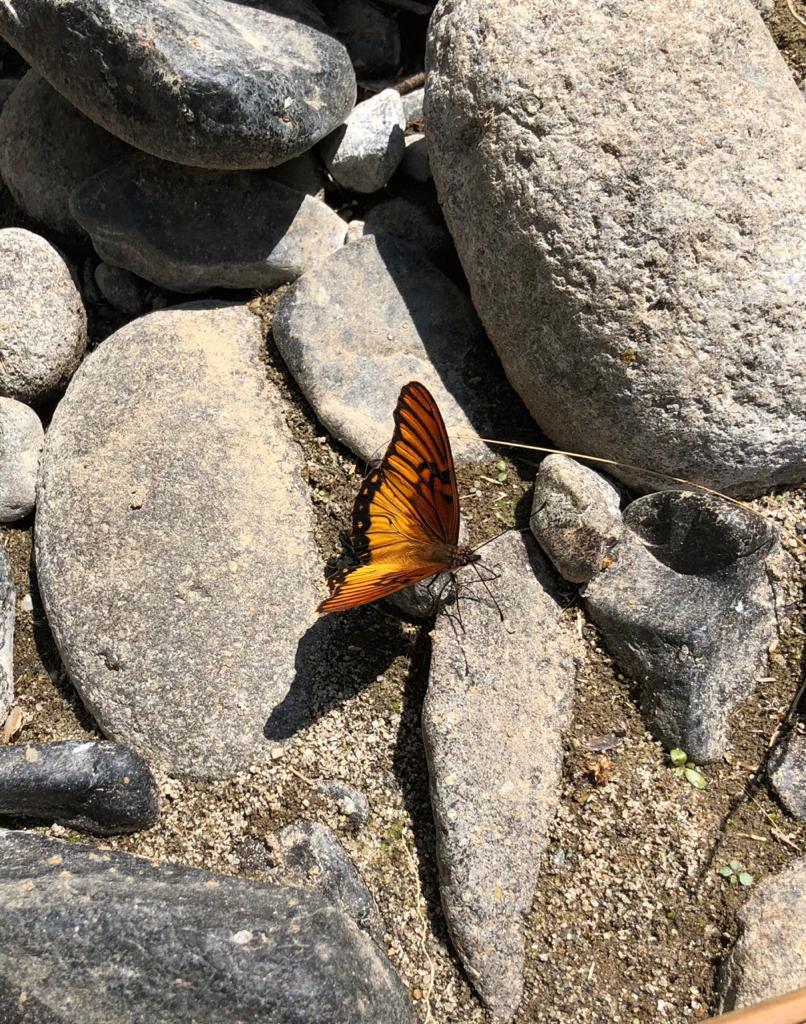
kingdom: Animalia
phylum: Arthropoda
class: Insecta
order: Lepidoptera
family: Nymphalidae
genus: Dione
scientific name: Dione moneta
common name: Mexican silverspot
